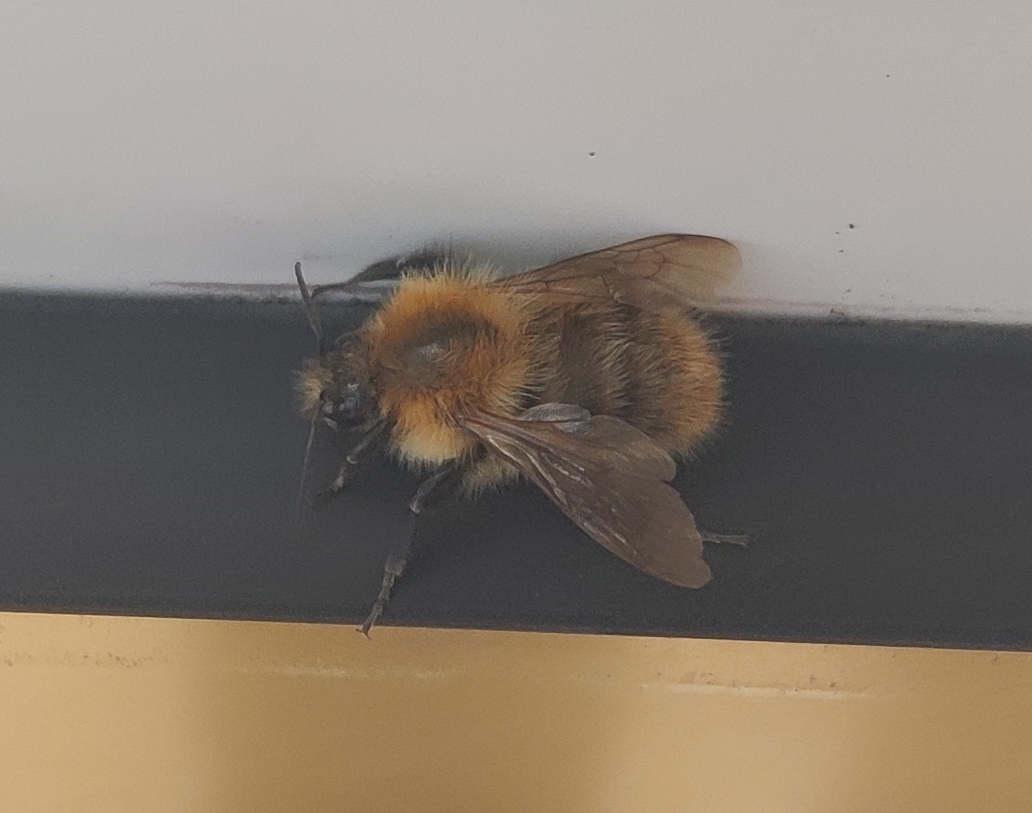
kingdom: Animalia
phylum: Arthropoda
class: Insecta
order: Hymenoptera
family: Apidae
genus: Bombus
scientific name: Bombus pascuorum
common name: Common carder bee
